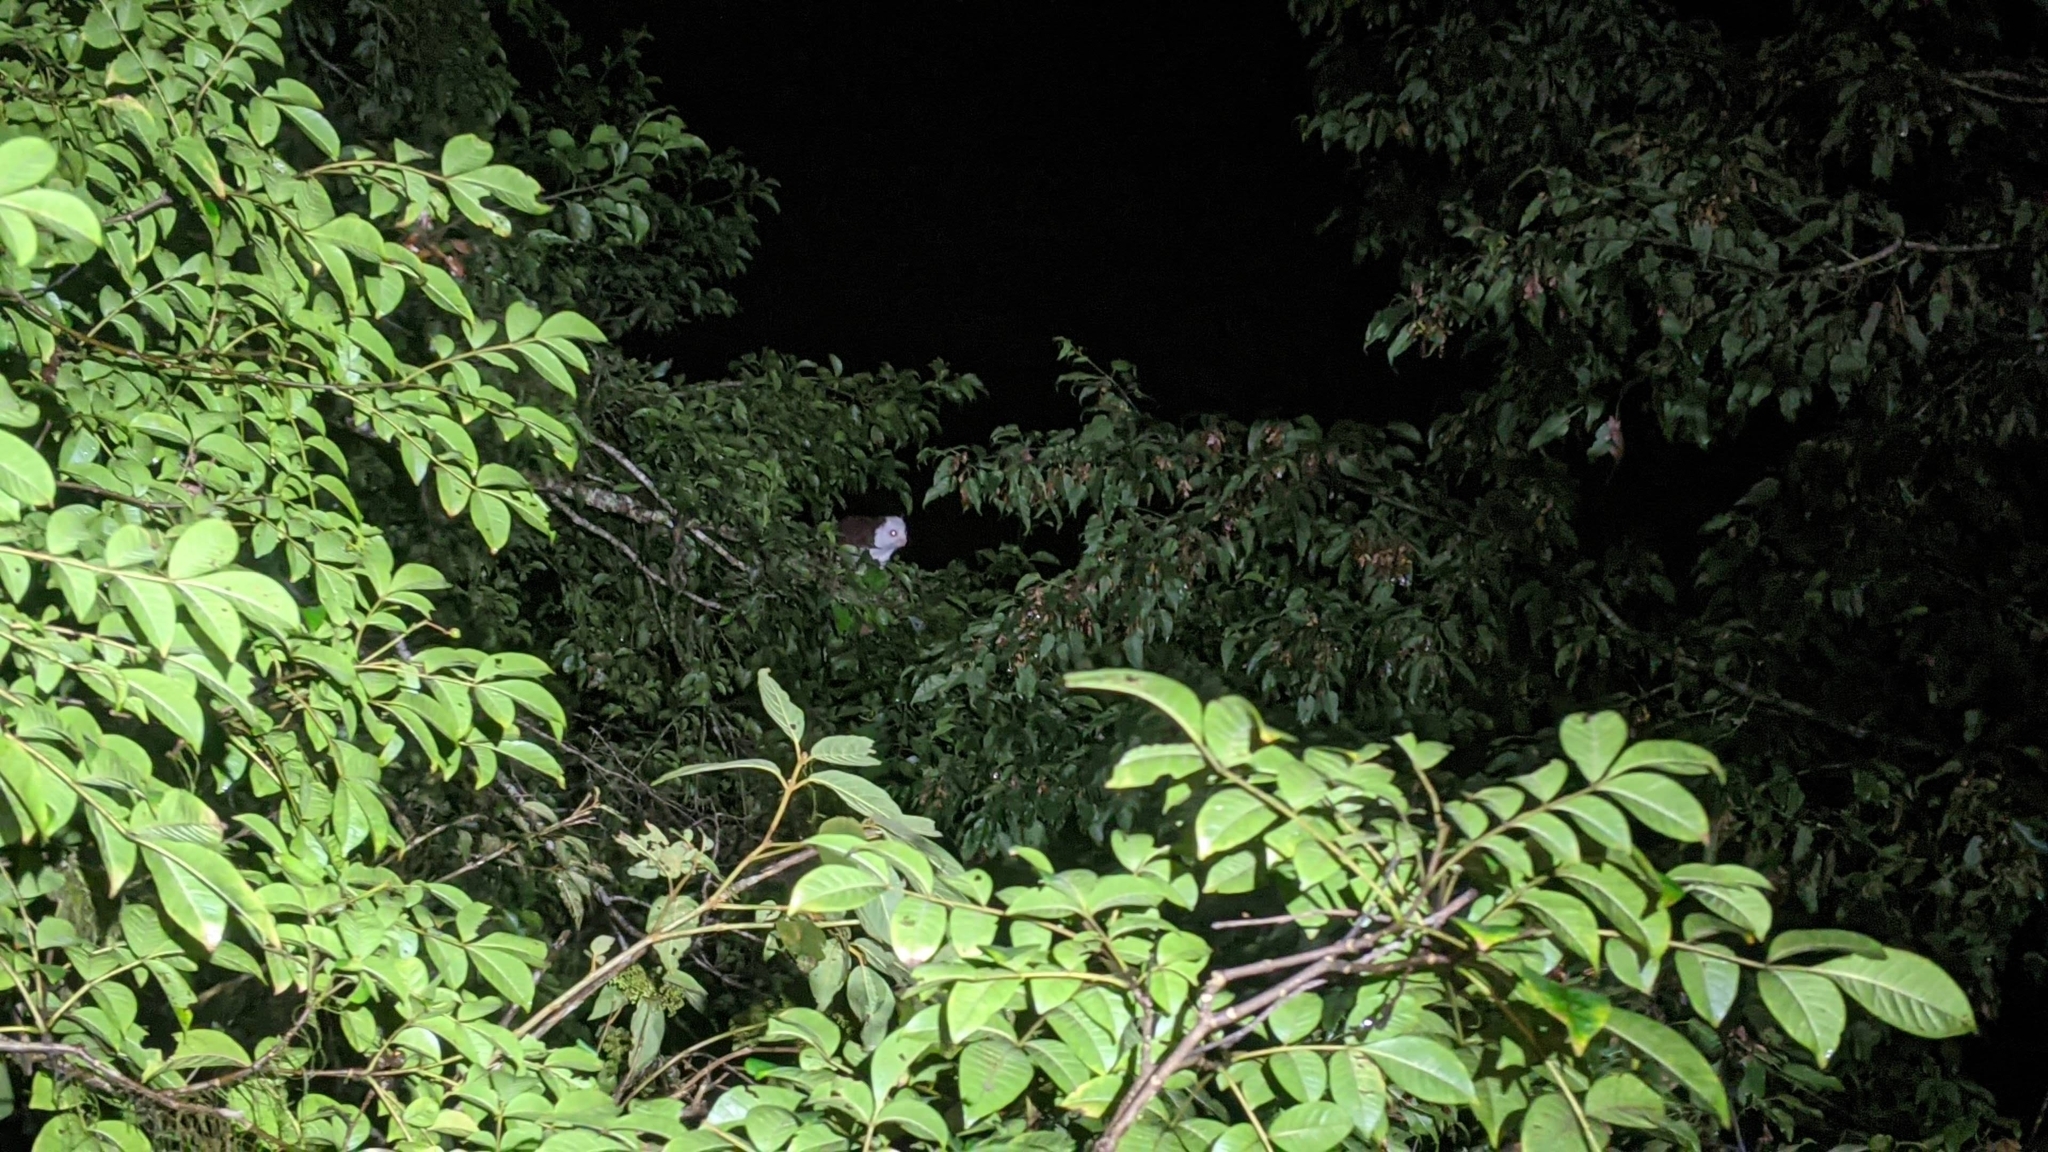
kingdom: Animalia
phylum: Chordata
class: Mammalia
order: Rodentia
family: Sciuridae
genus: Petaurista
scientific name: Petaurista lena
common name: Taiwan giant flying squirrel
